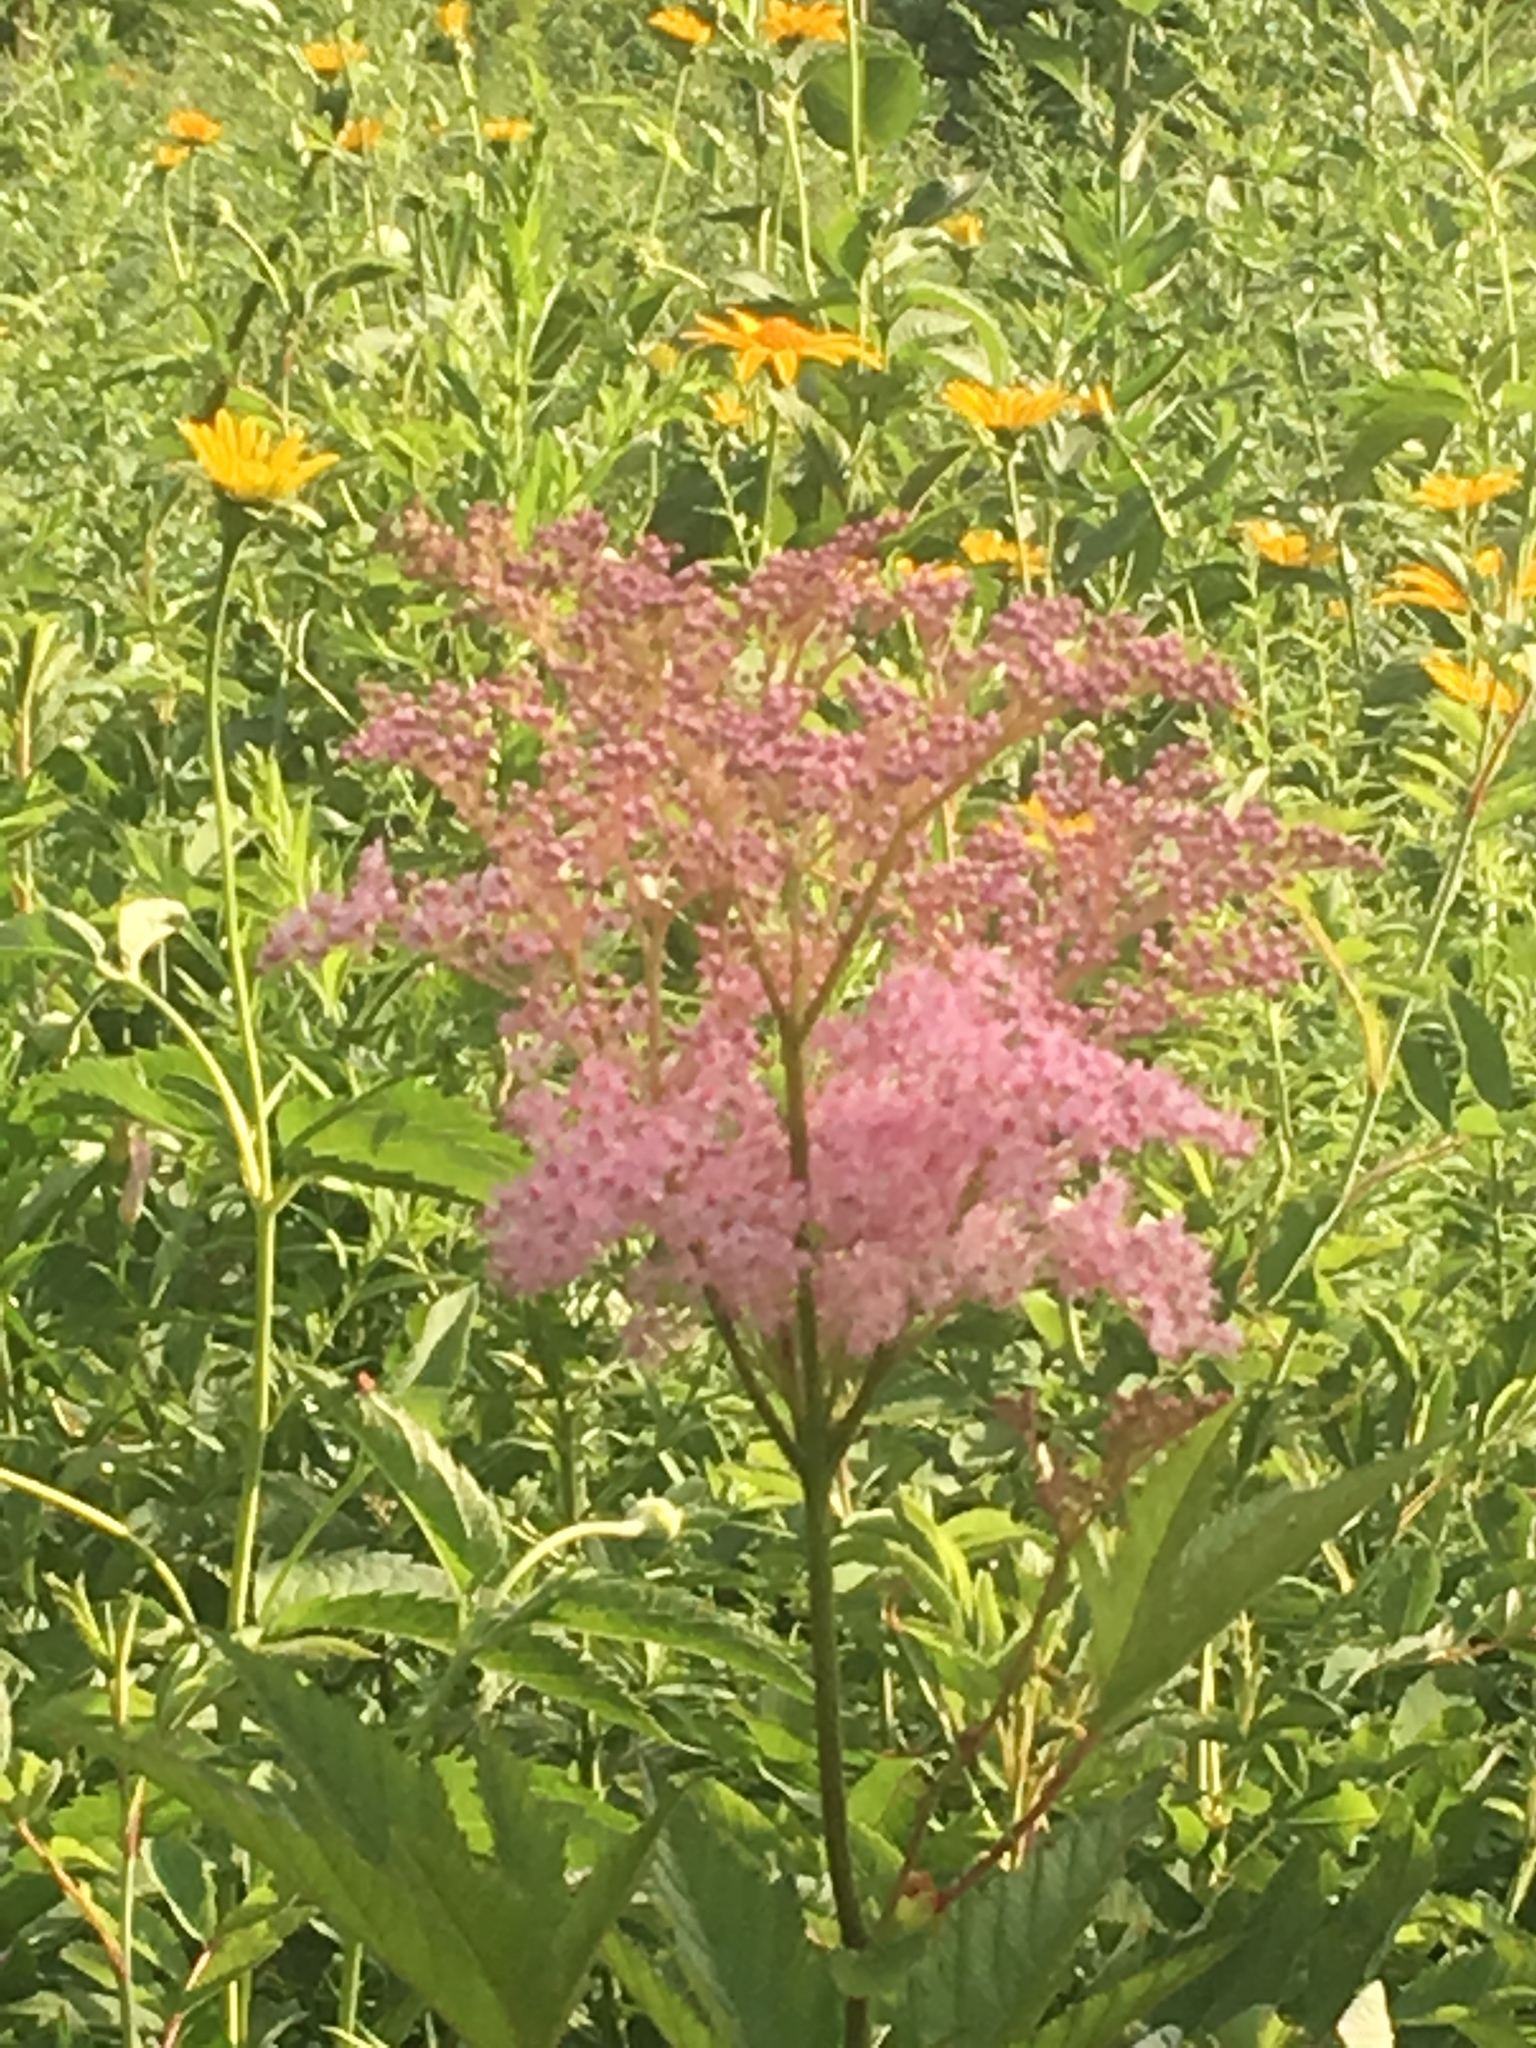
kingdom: Plantae
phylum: Tracheophyta
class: Magnoliopsida
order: Rosales
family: Rosaceae
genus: Filipendula
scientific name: Filipendula rubra
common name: Queen-of-the-prairie
